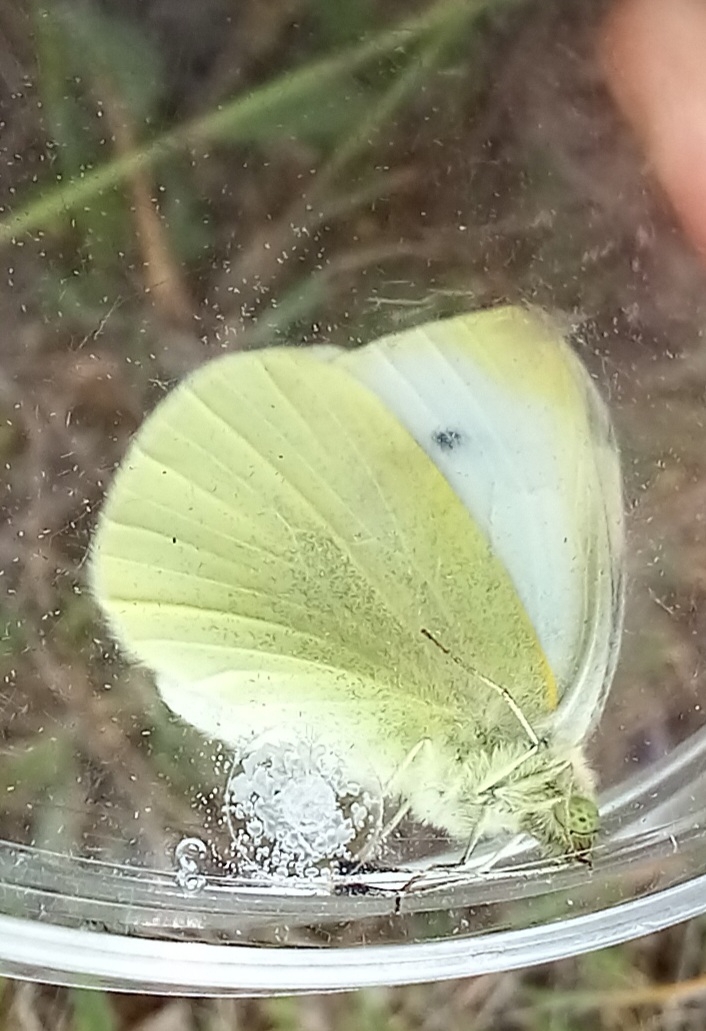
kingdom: Animalia
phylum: Arthropoda
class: Insecta
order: Lepidoptera
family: Pieridae
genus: Pieris
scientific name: Pieris rapae
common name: Small white
